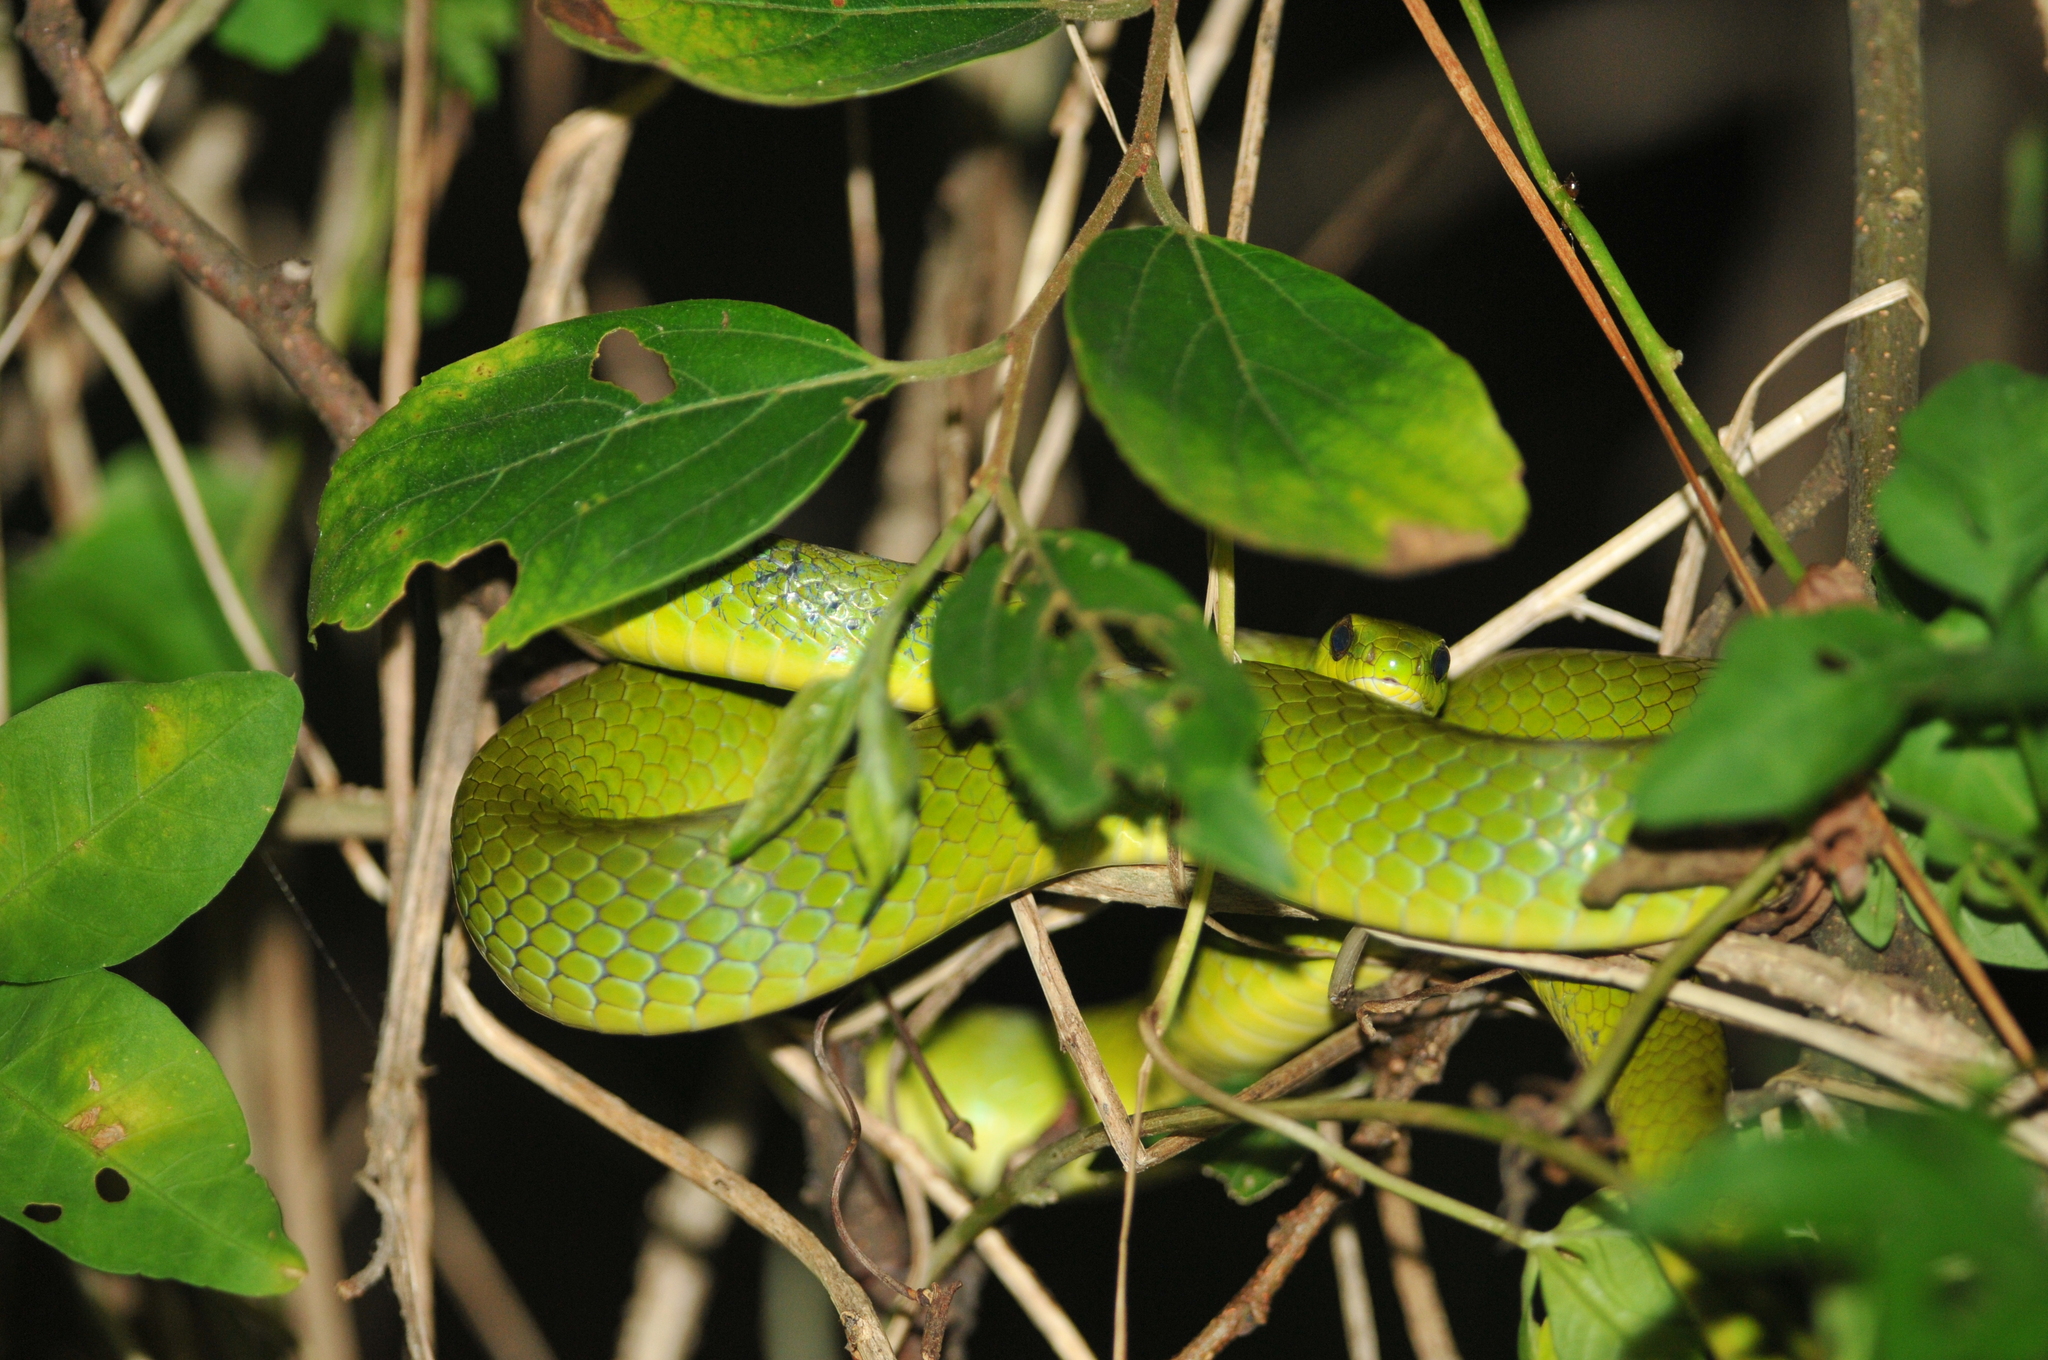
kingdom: Animalia
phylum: Chordata
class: Squamata
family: Colubridae
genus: Ptyas
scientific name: Ptyas major
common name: Chinese green snake
